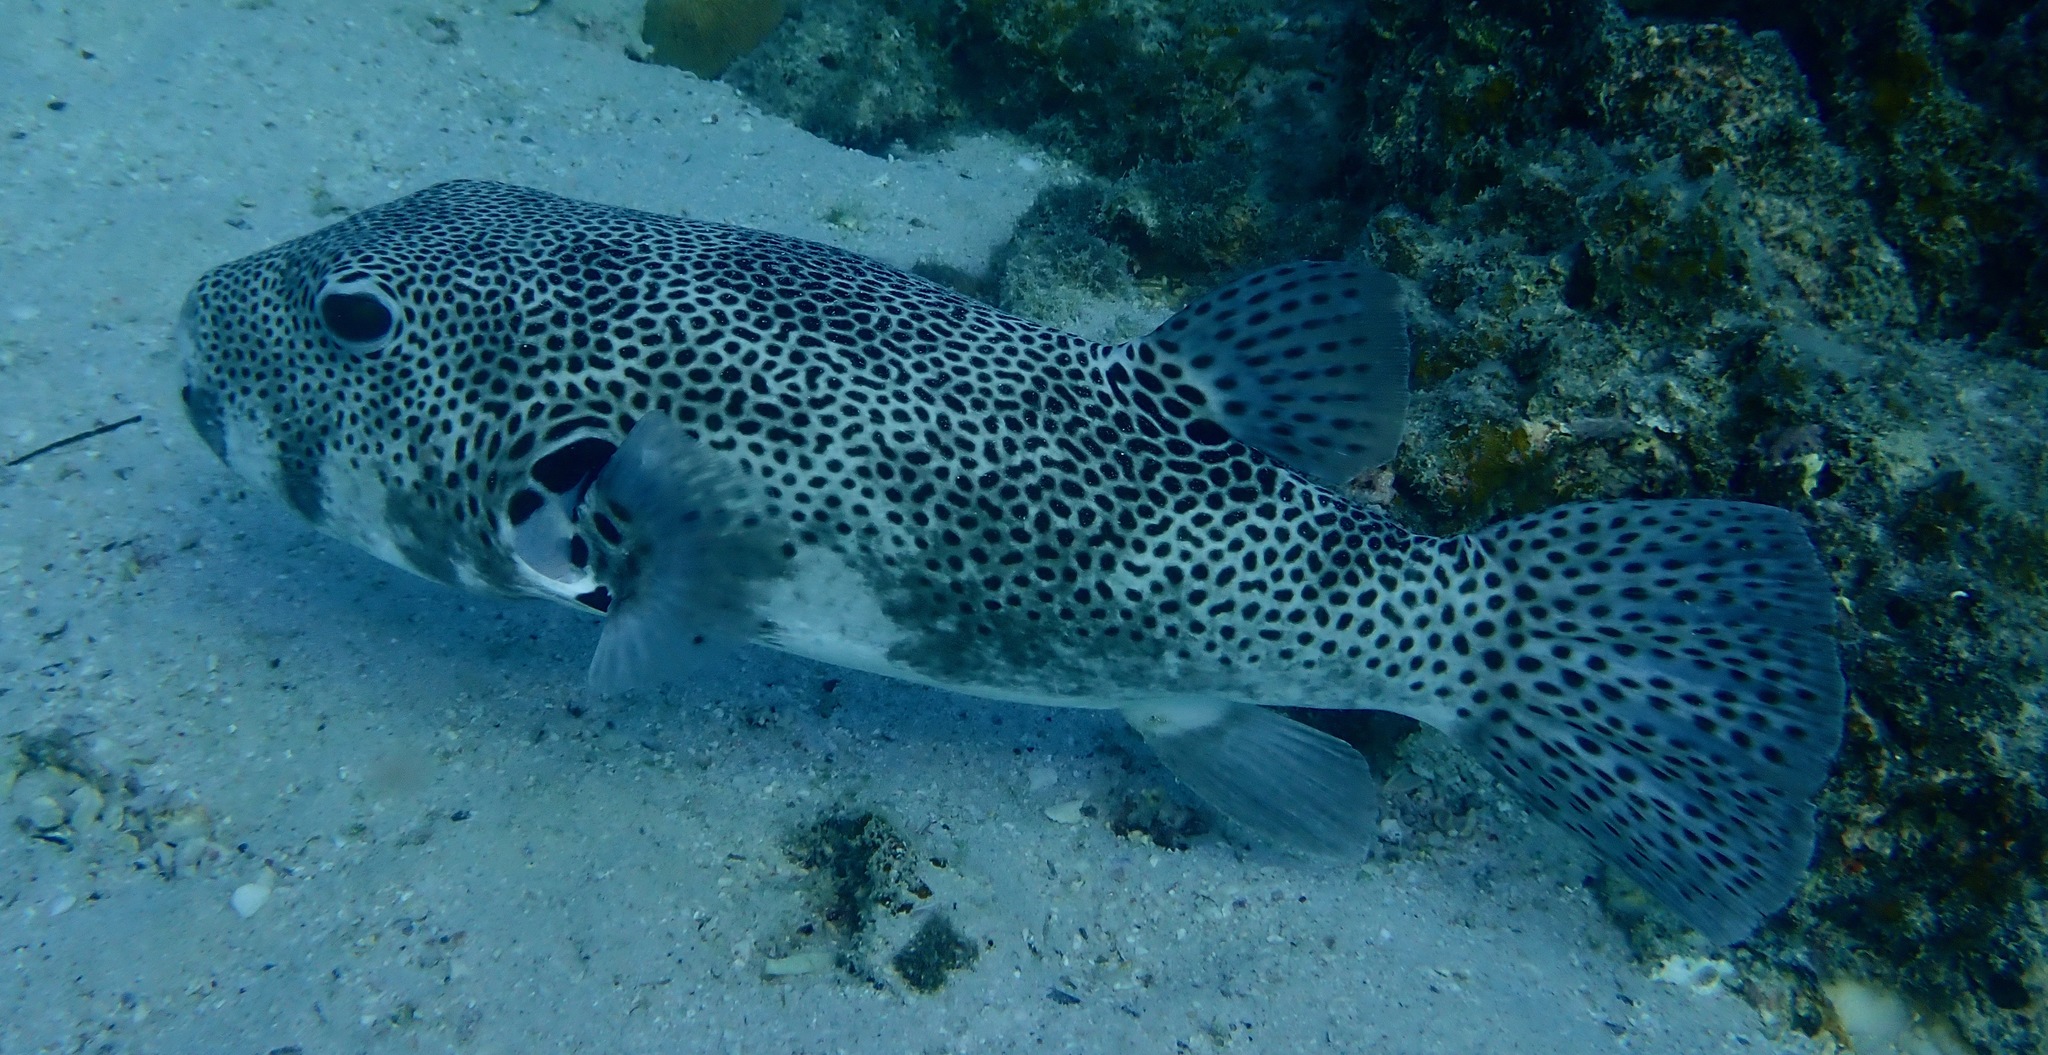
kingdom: Animalia
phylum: Chordata
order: Tetraodontiformes
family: Tetraodontidae
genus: Arothron
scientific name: Arothron stellatus
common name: Star blaasop
